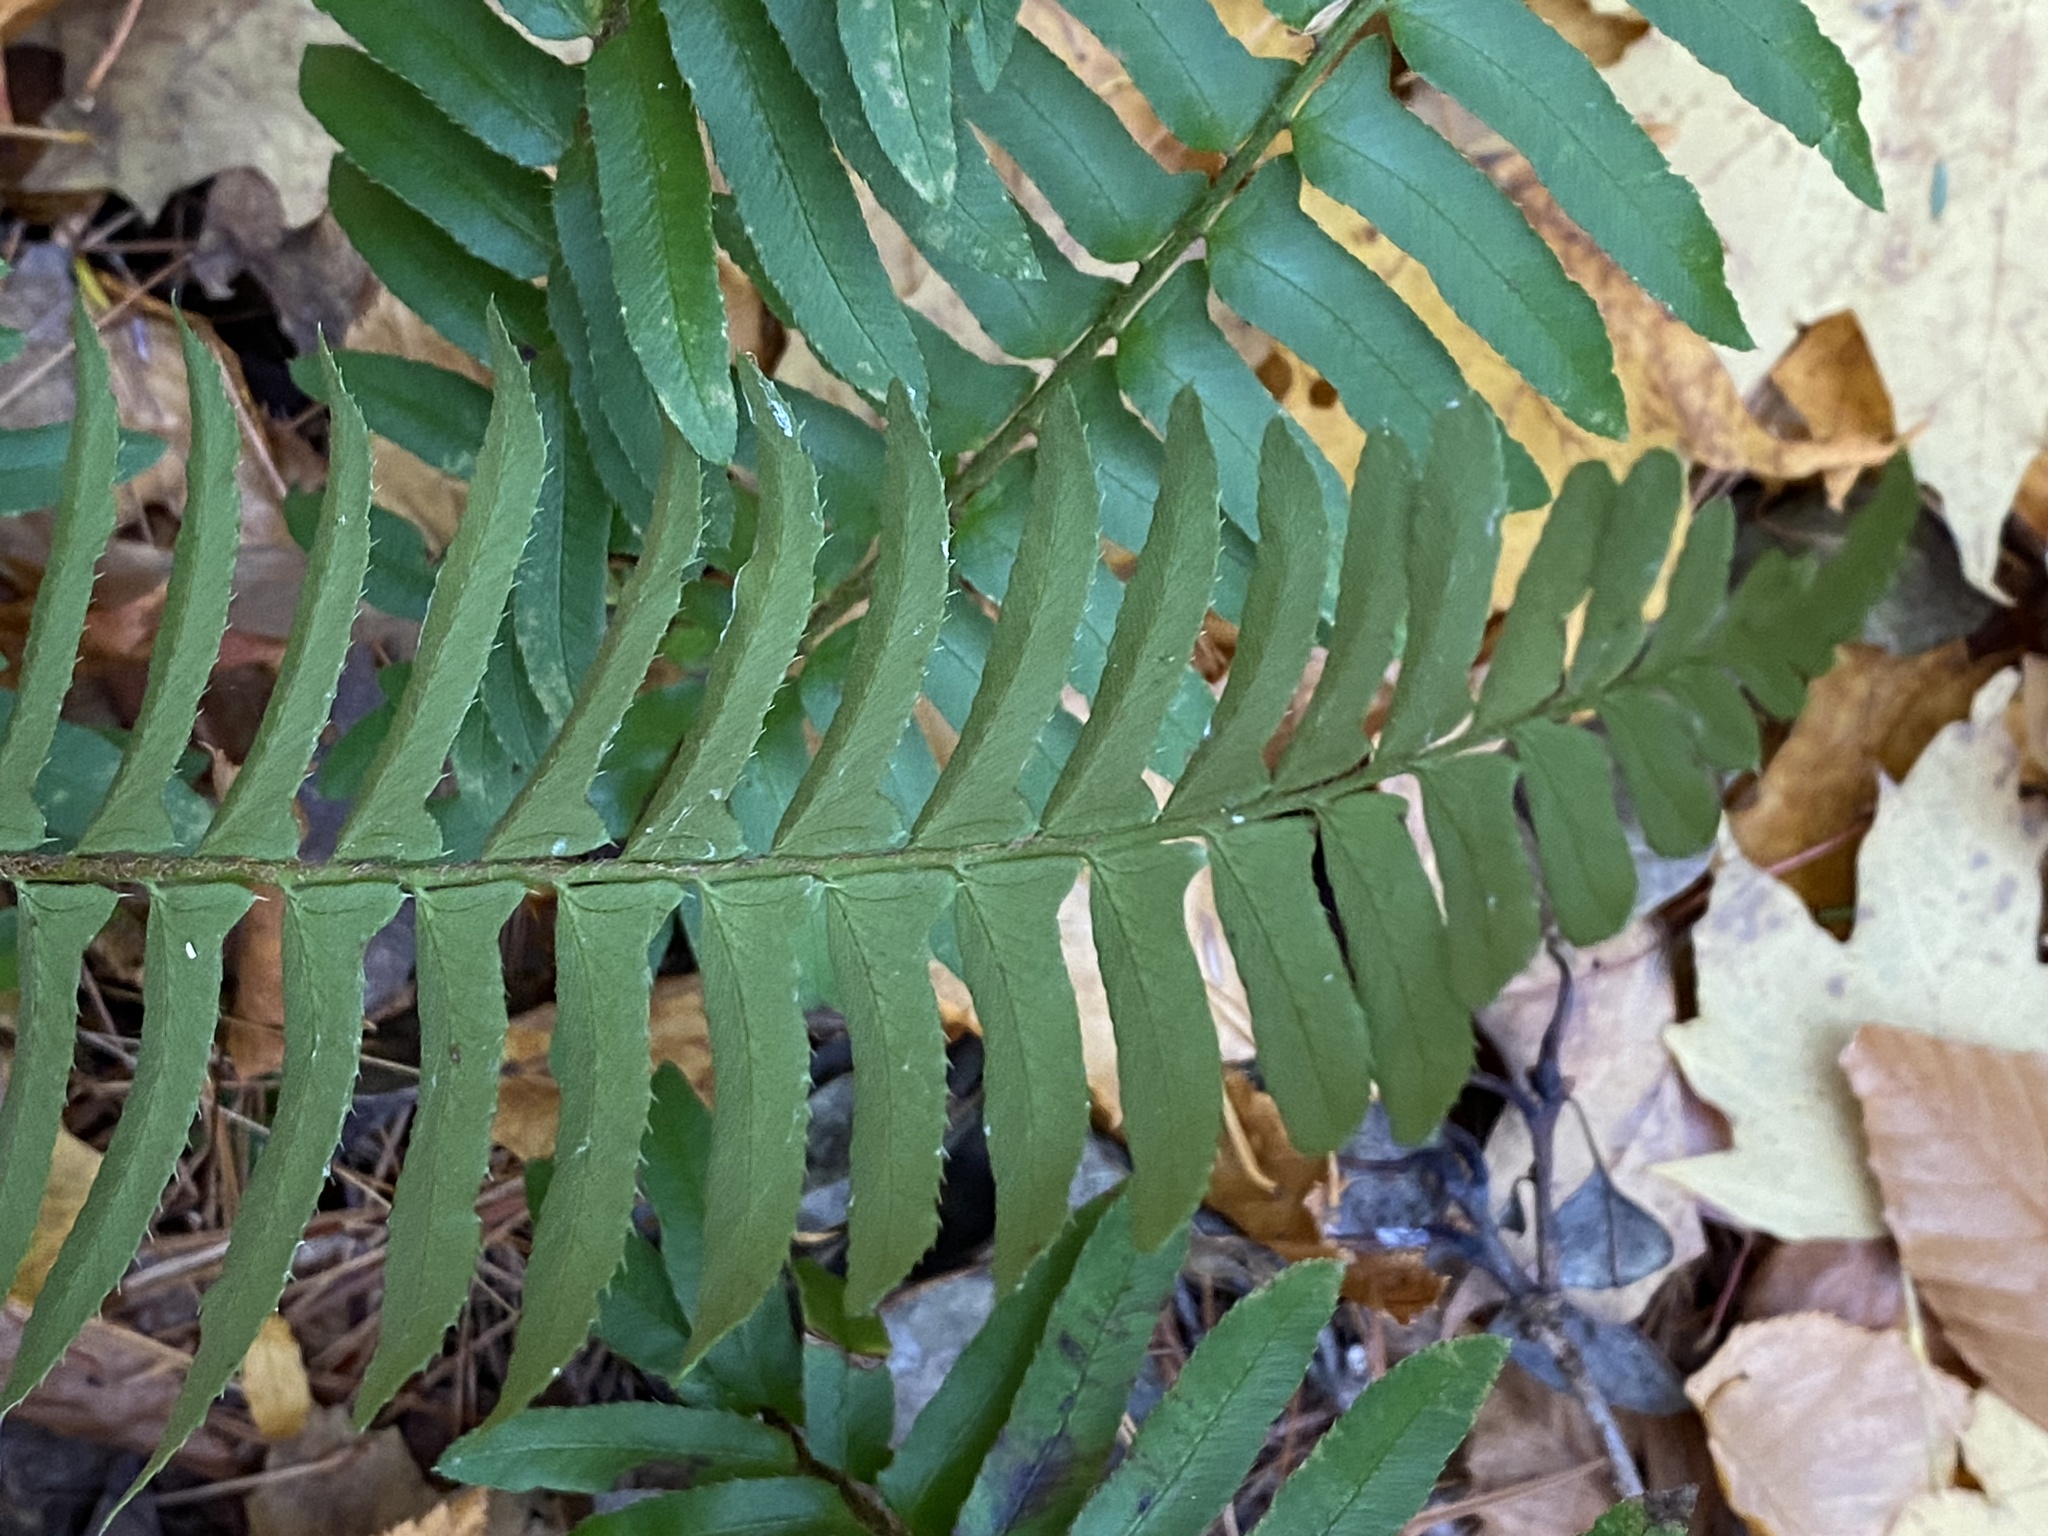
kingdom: Plantae
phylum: Tracheophyta
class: Polypodiopsida
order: Polypodiales
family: Dryopteridaceae
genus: Polystichum
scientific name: Polystichum acrostichoides
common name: Christmas fern
